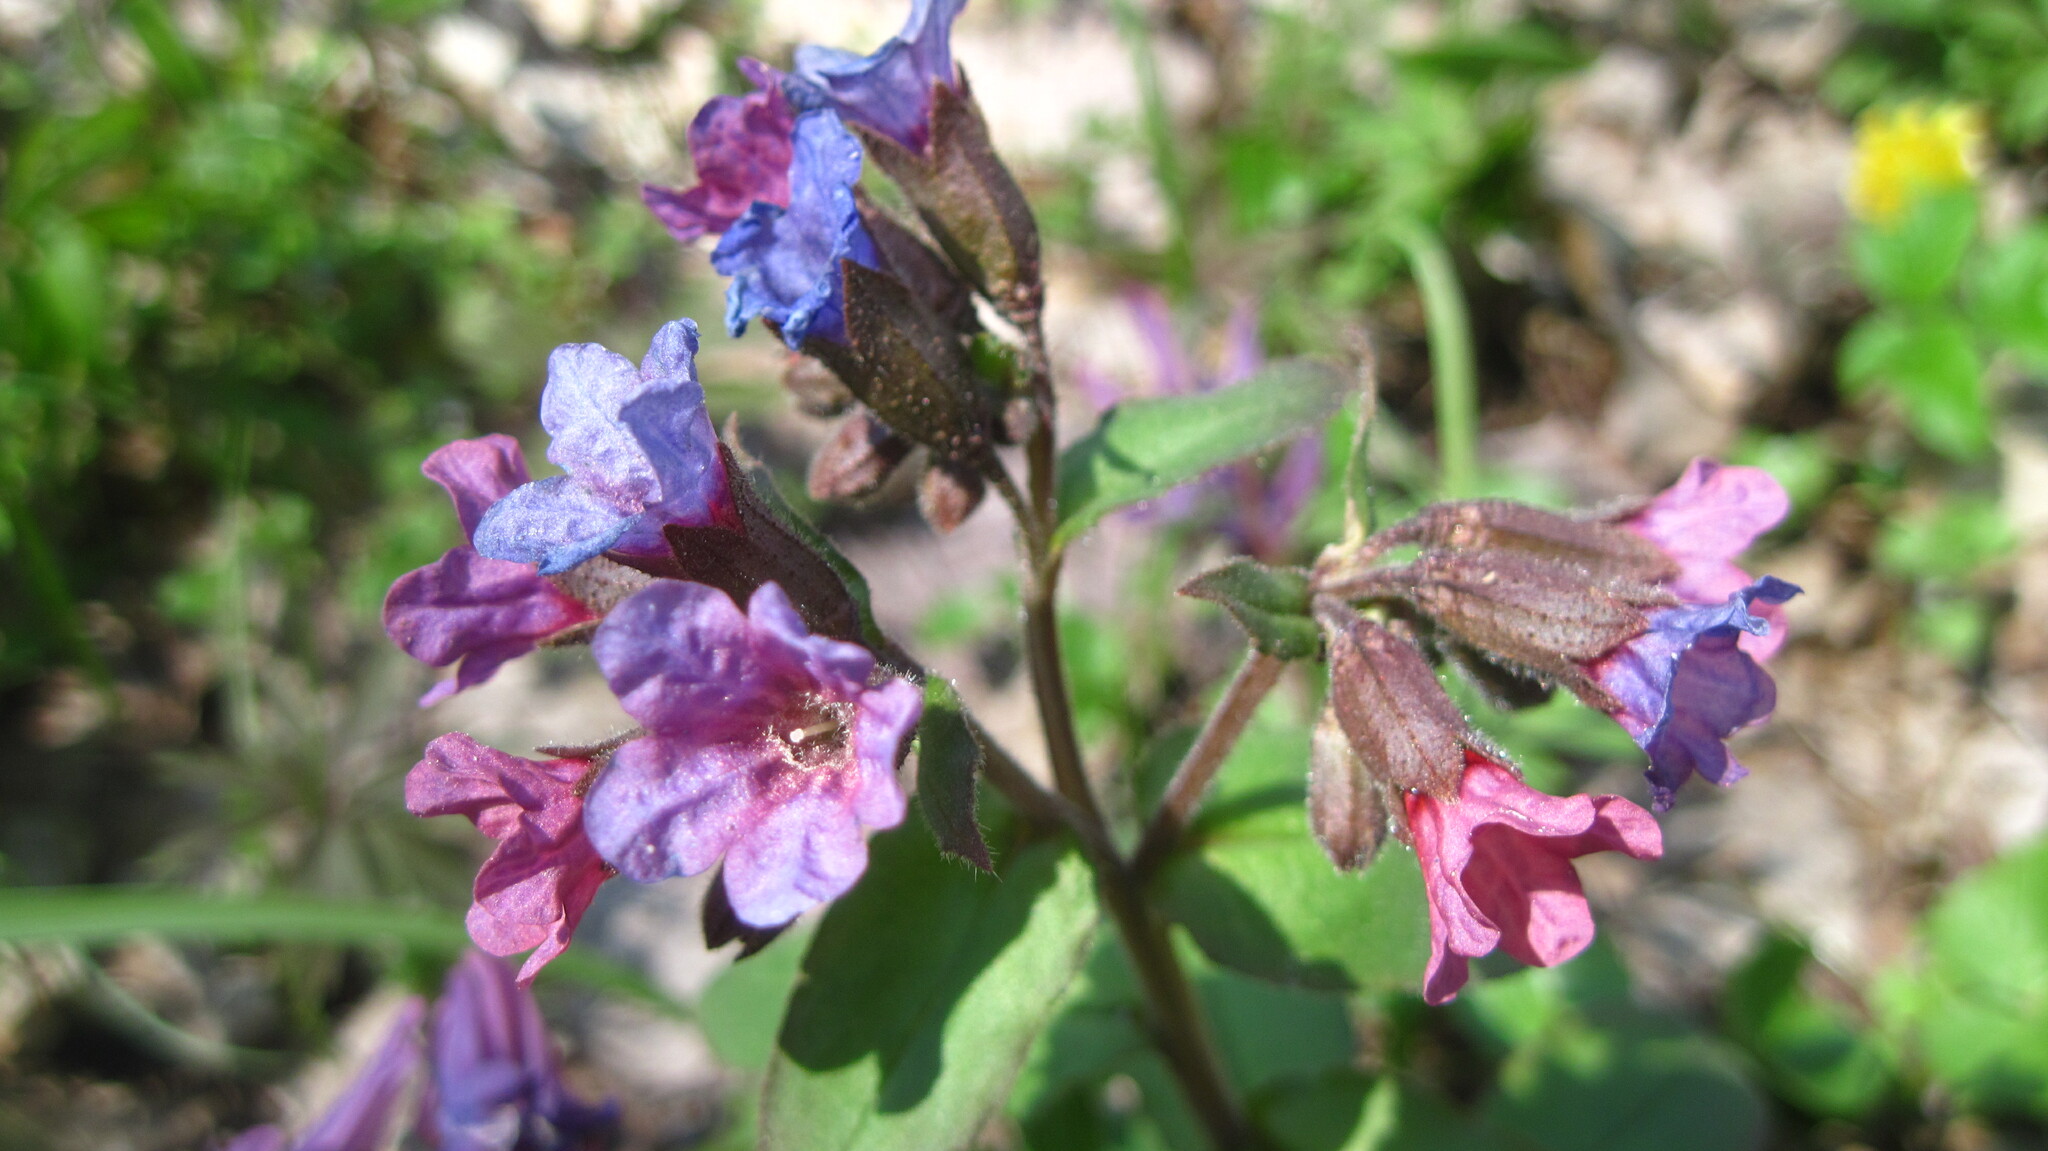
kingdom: Plantae
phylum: Tracheophyta
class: Magnoliopsida
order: Boraginales
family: Boraginaceae
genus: Pulmonaria
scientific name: Pulmonaria obscura
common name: Suffolk lungwort
